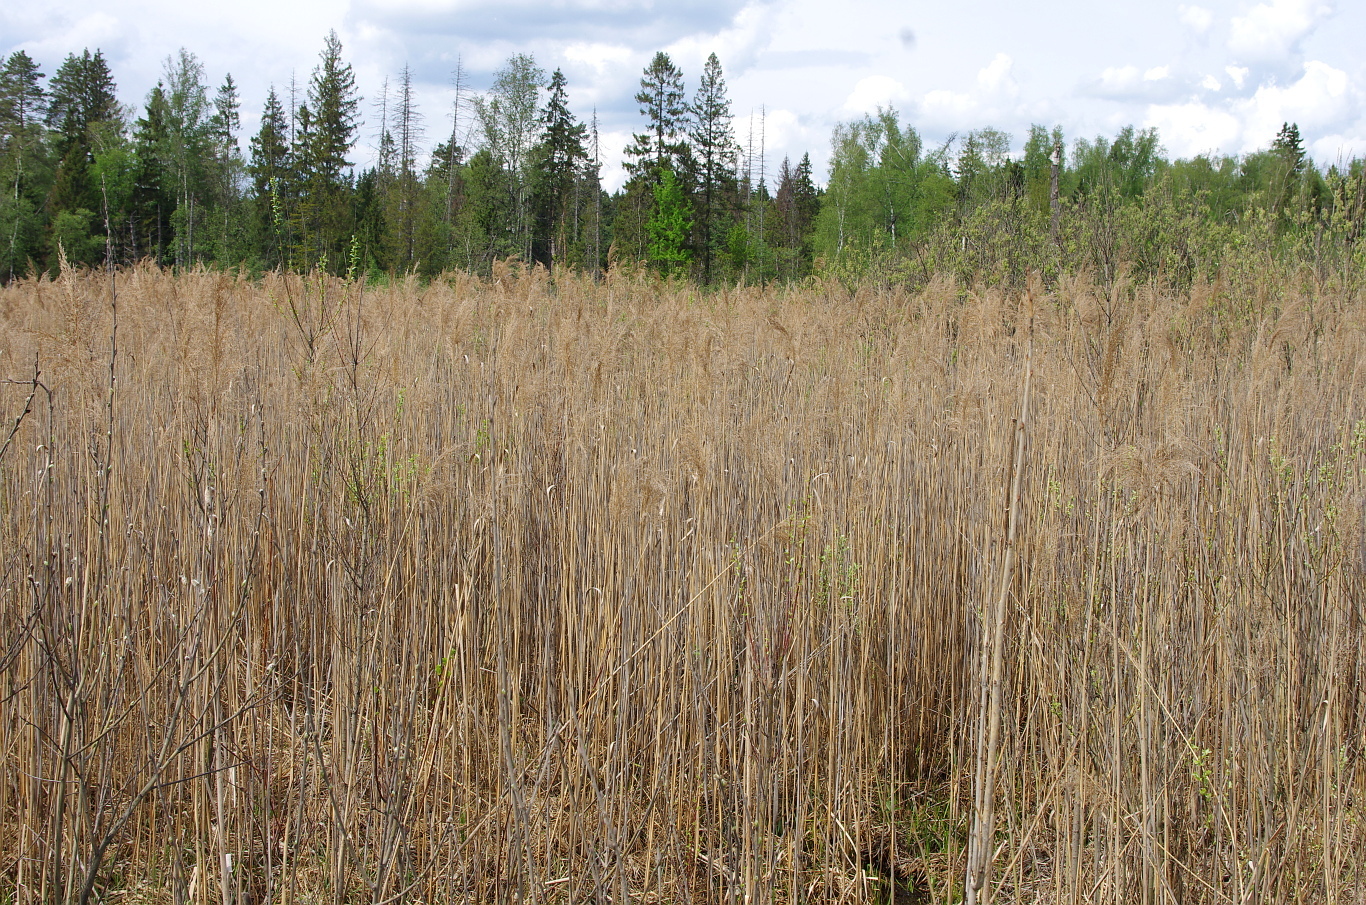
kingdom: Plantae
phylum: Tracheophyta
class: Liliopsida
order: Poales
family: Poaceae
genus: Phragmites
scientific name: Phragmites australis
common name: Common reed
